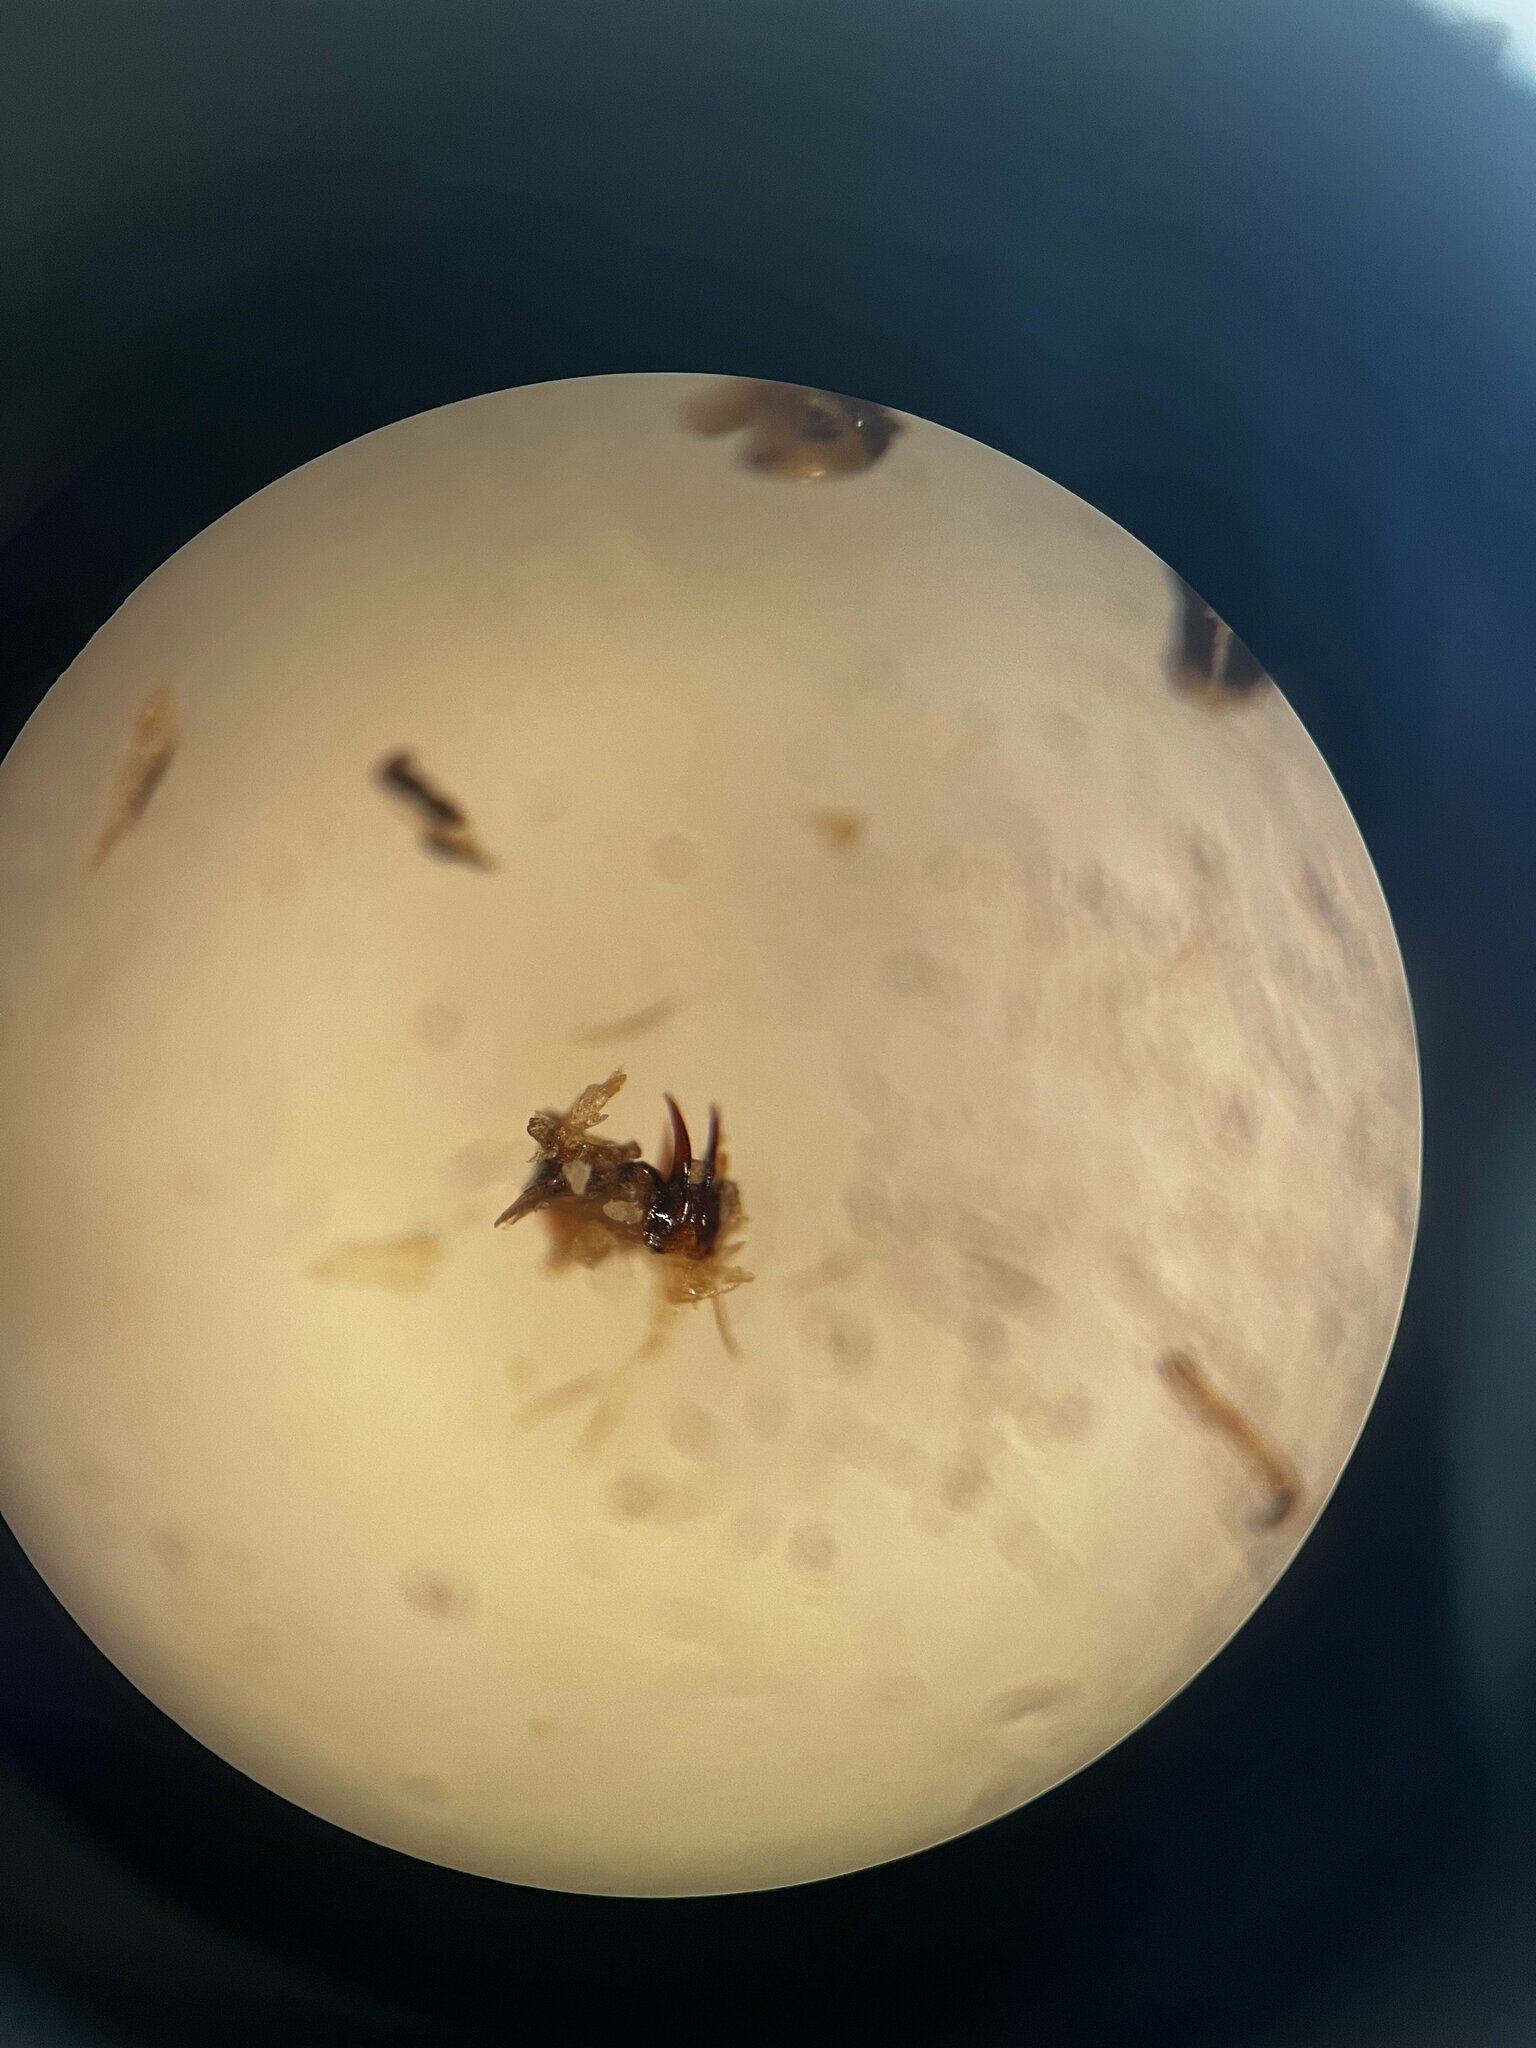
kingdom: Animalia
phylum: Arthropoda
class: Insecta
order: Hemiptera
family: Cicadellidae
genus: Jassargus
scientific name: Jassargus obtusivalvis
